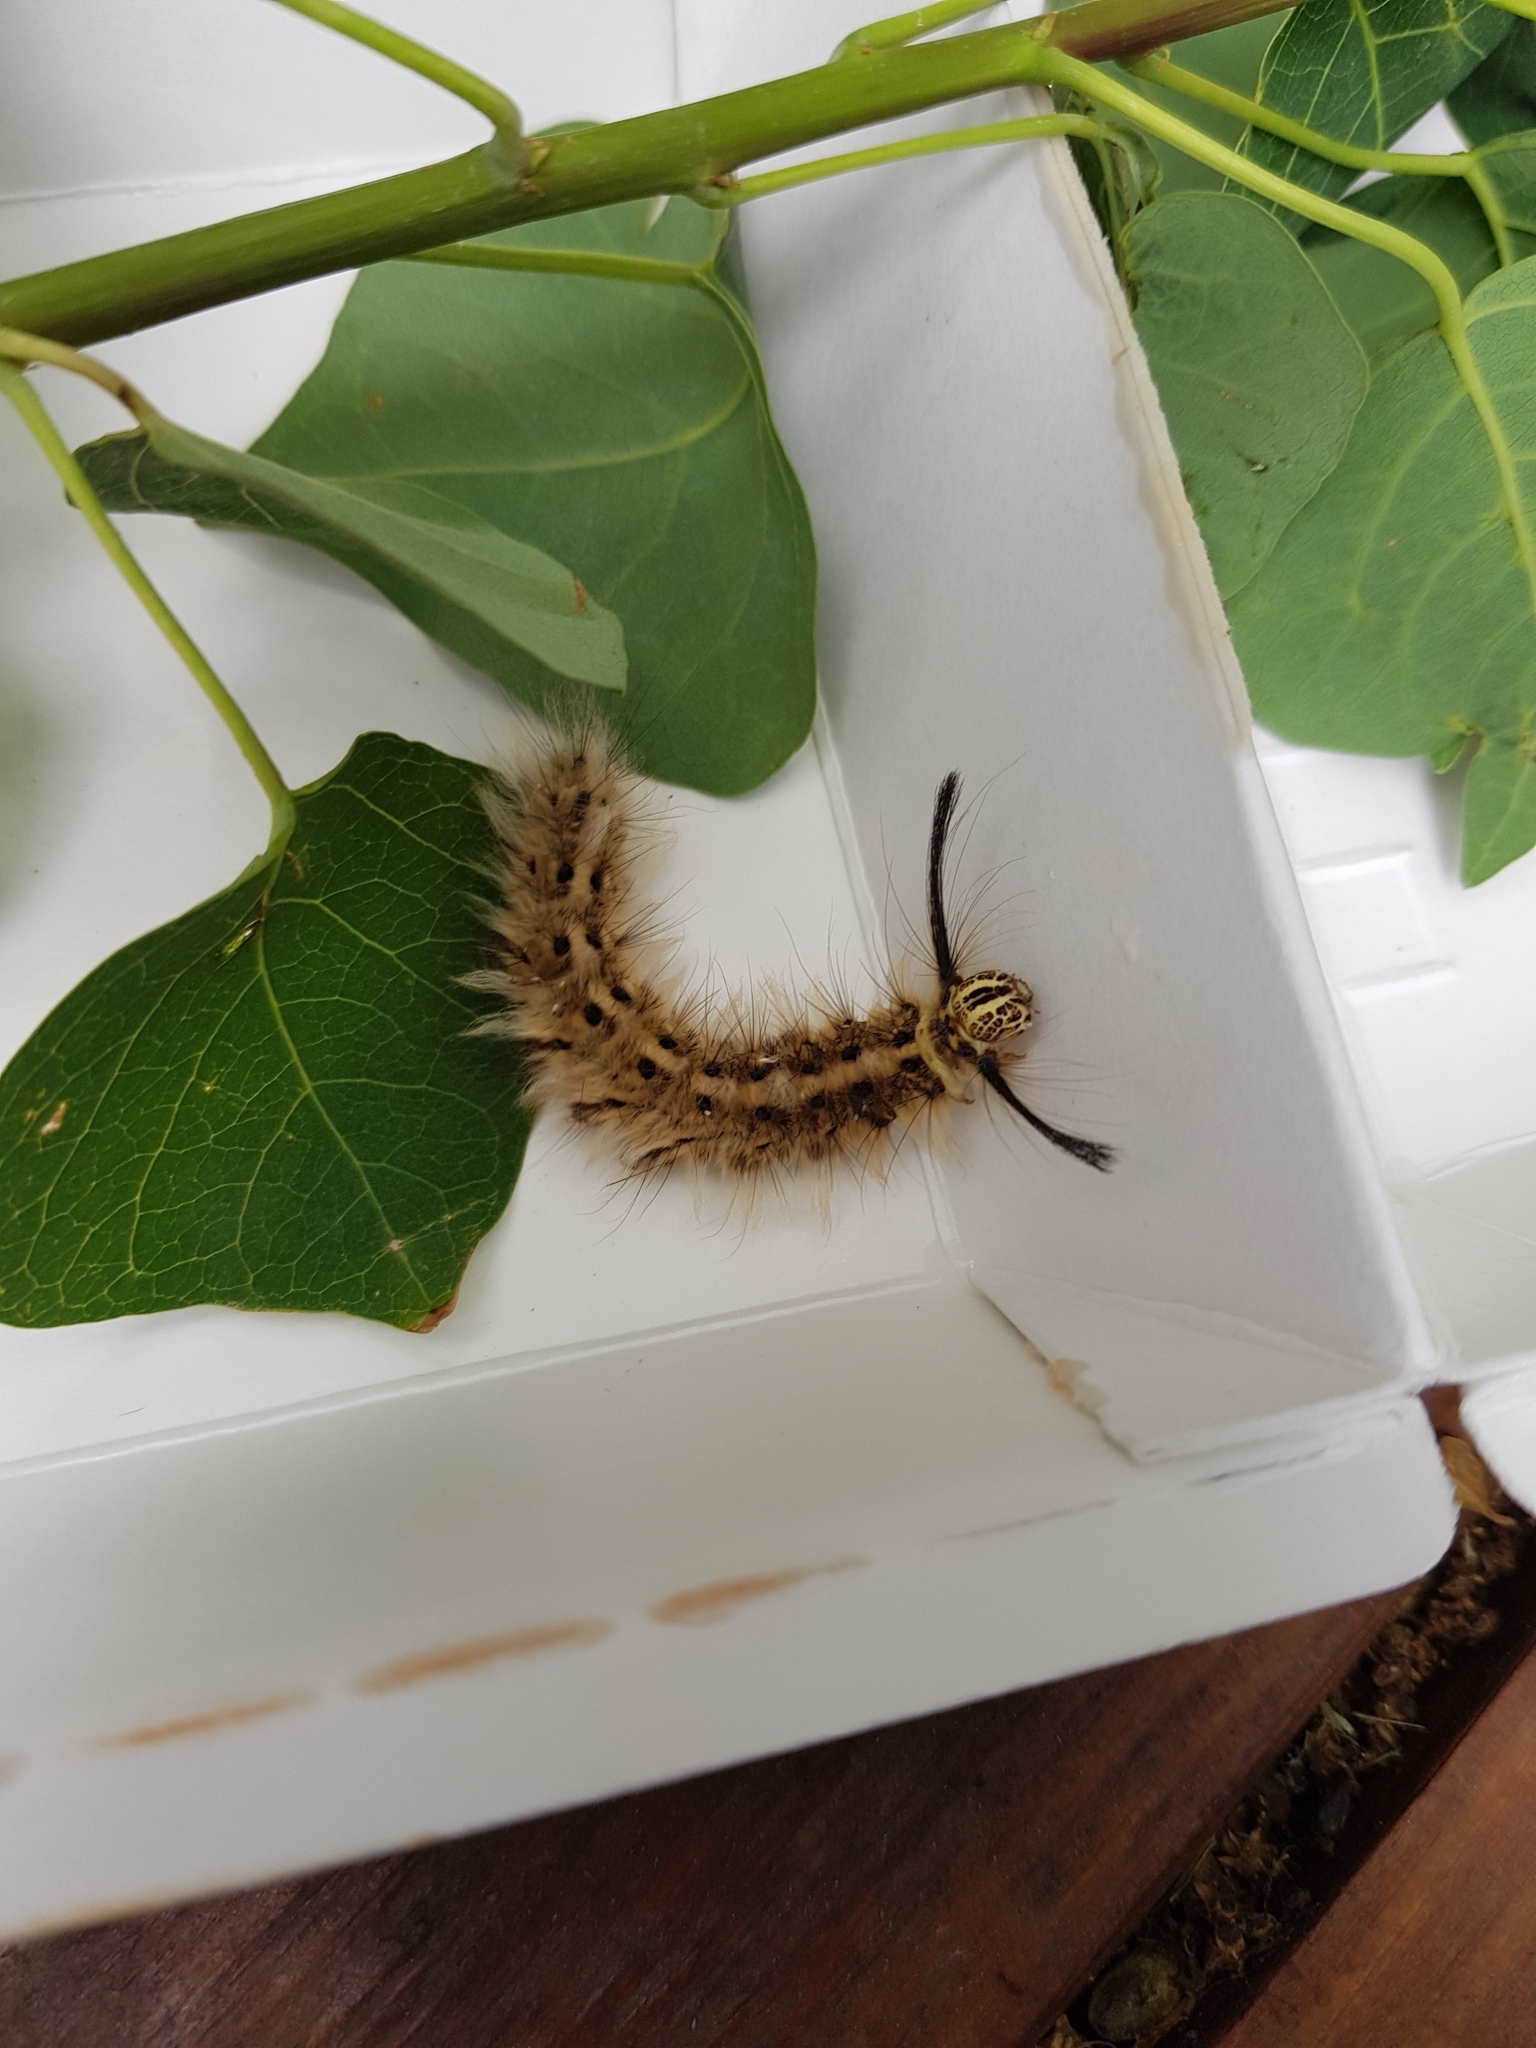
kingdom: Animalia
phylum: Arthropoda
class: Insecta
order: Lepidoptera
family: Lasiocampidae
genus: Trabala
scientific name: Trabala vishnou
